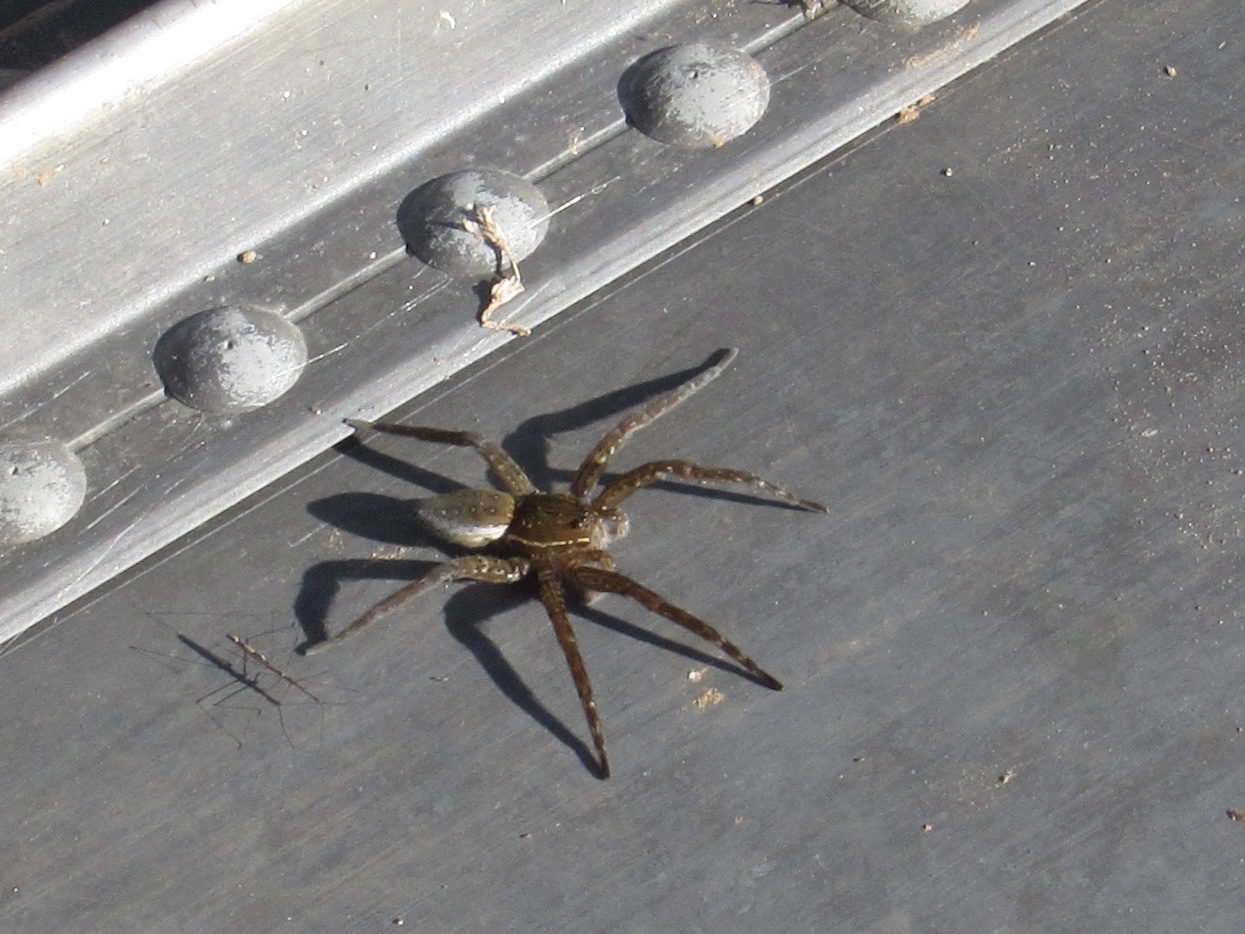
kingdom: Animalia
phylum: Arthropoda
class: Arachnida
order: Araneae
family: Pisauridae
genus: Dolomedes
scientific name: Dolomedes triton
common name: Six-spotted fishing spider
